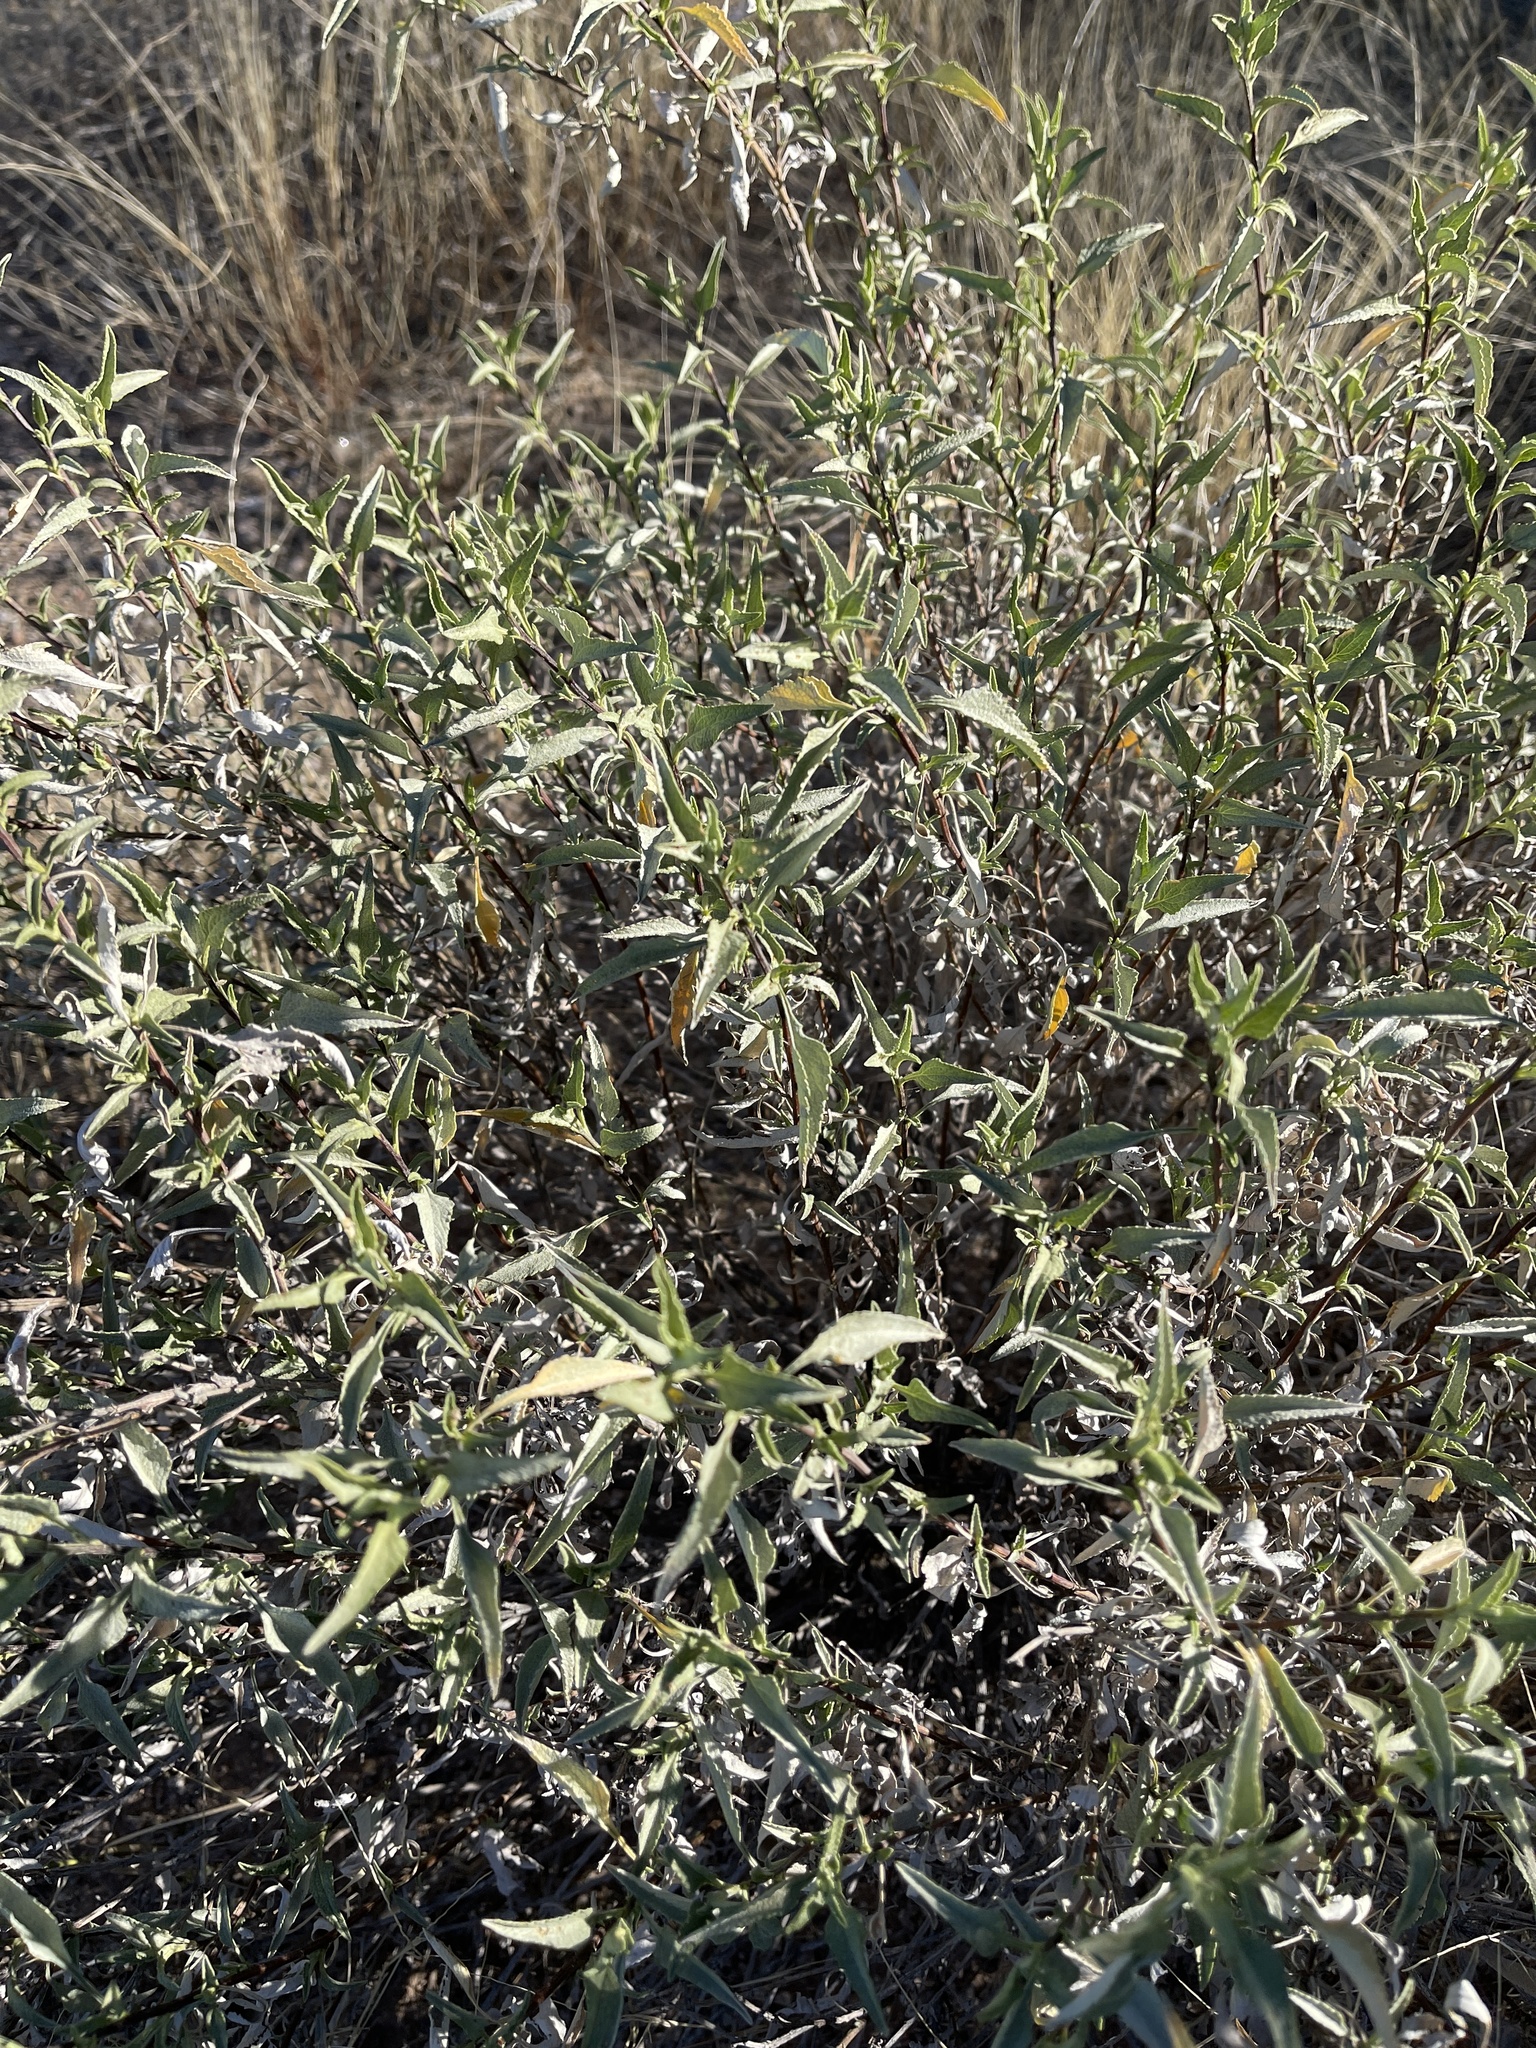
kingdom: Plantae
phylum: Tracheophyta
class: Magnoliopsida
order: Asterales
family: Asteraceae
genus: Ambrosia
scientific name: Ambrosia deltoidea
